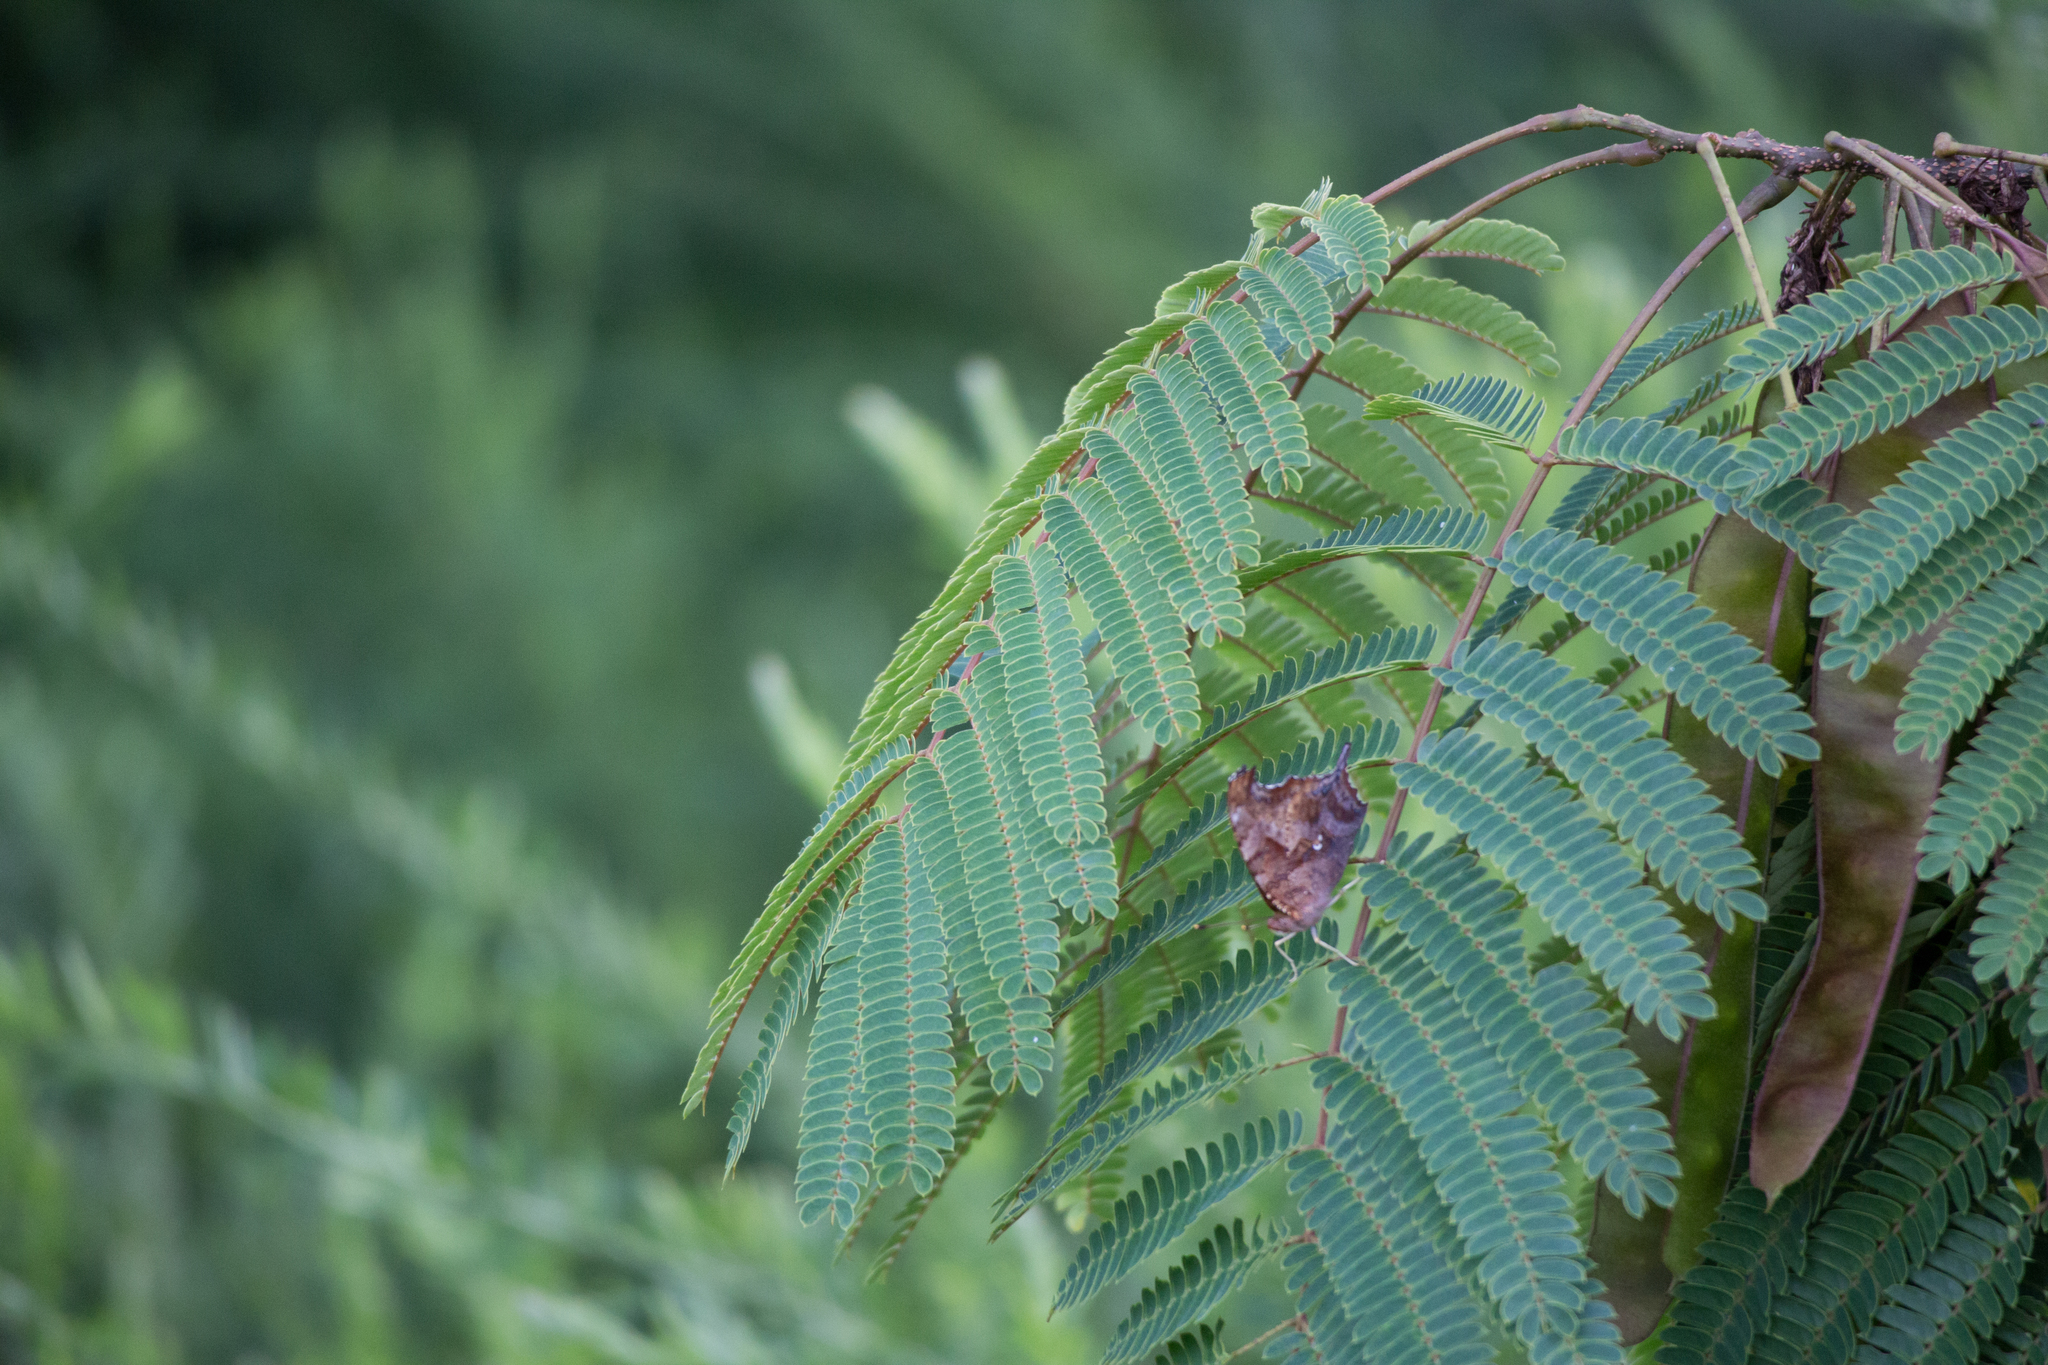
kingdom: Animalia
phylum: Arthropoda
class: Insecta
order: Lepidoptera
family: Nymphalidae
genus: Polygonia
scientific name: Polygonia interrogationis
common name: Question mark
